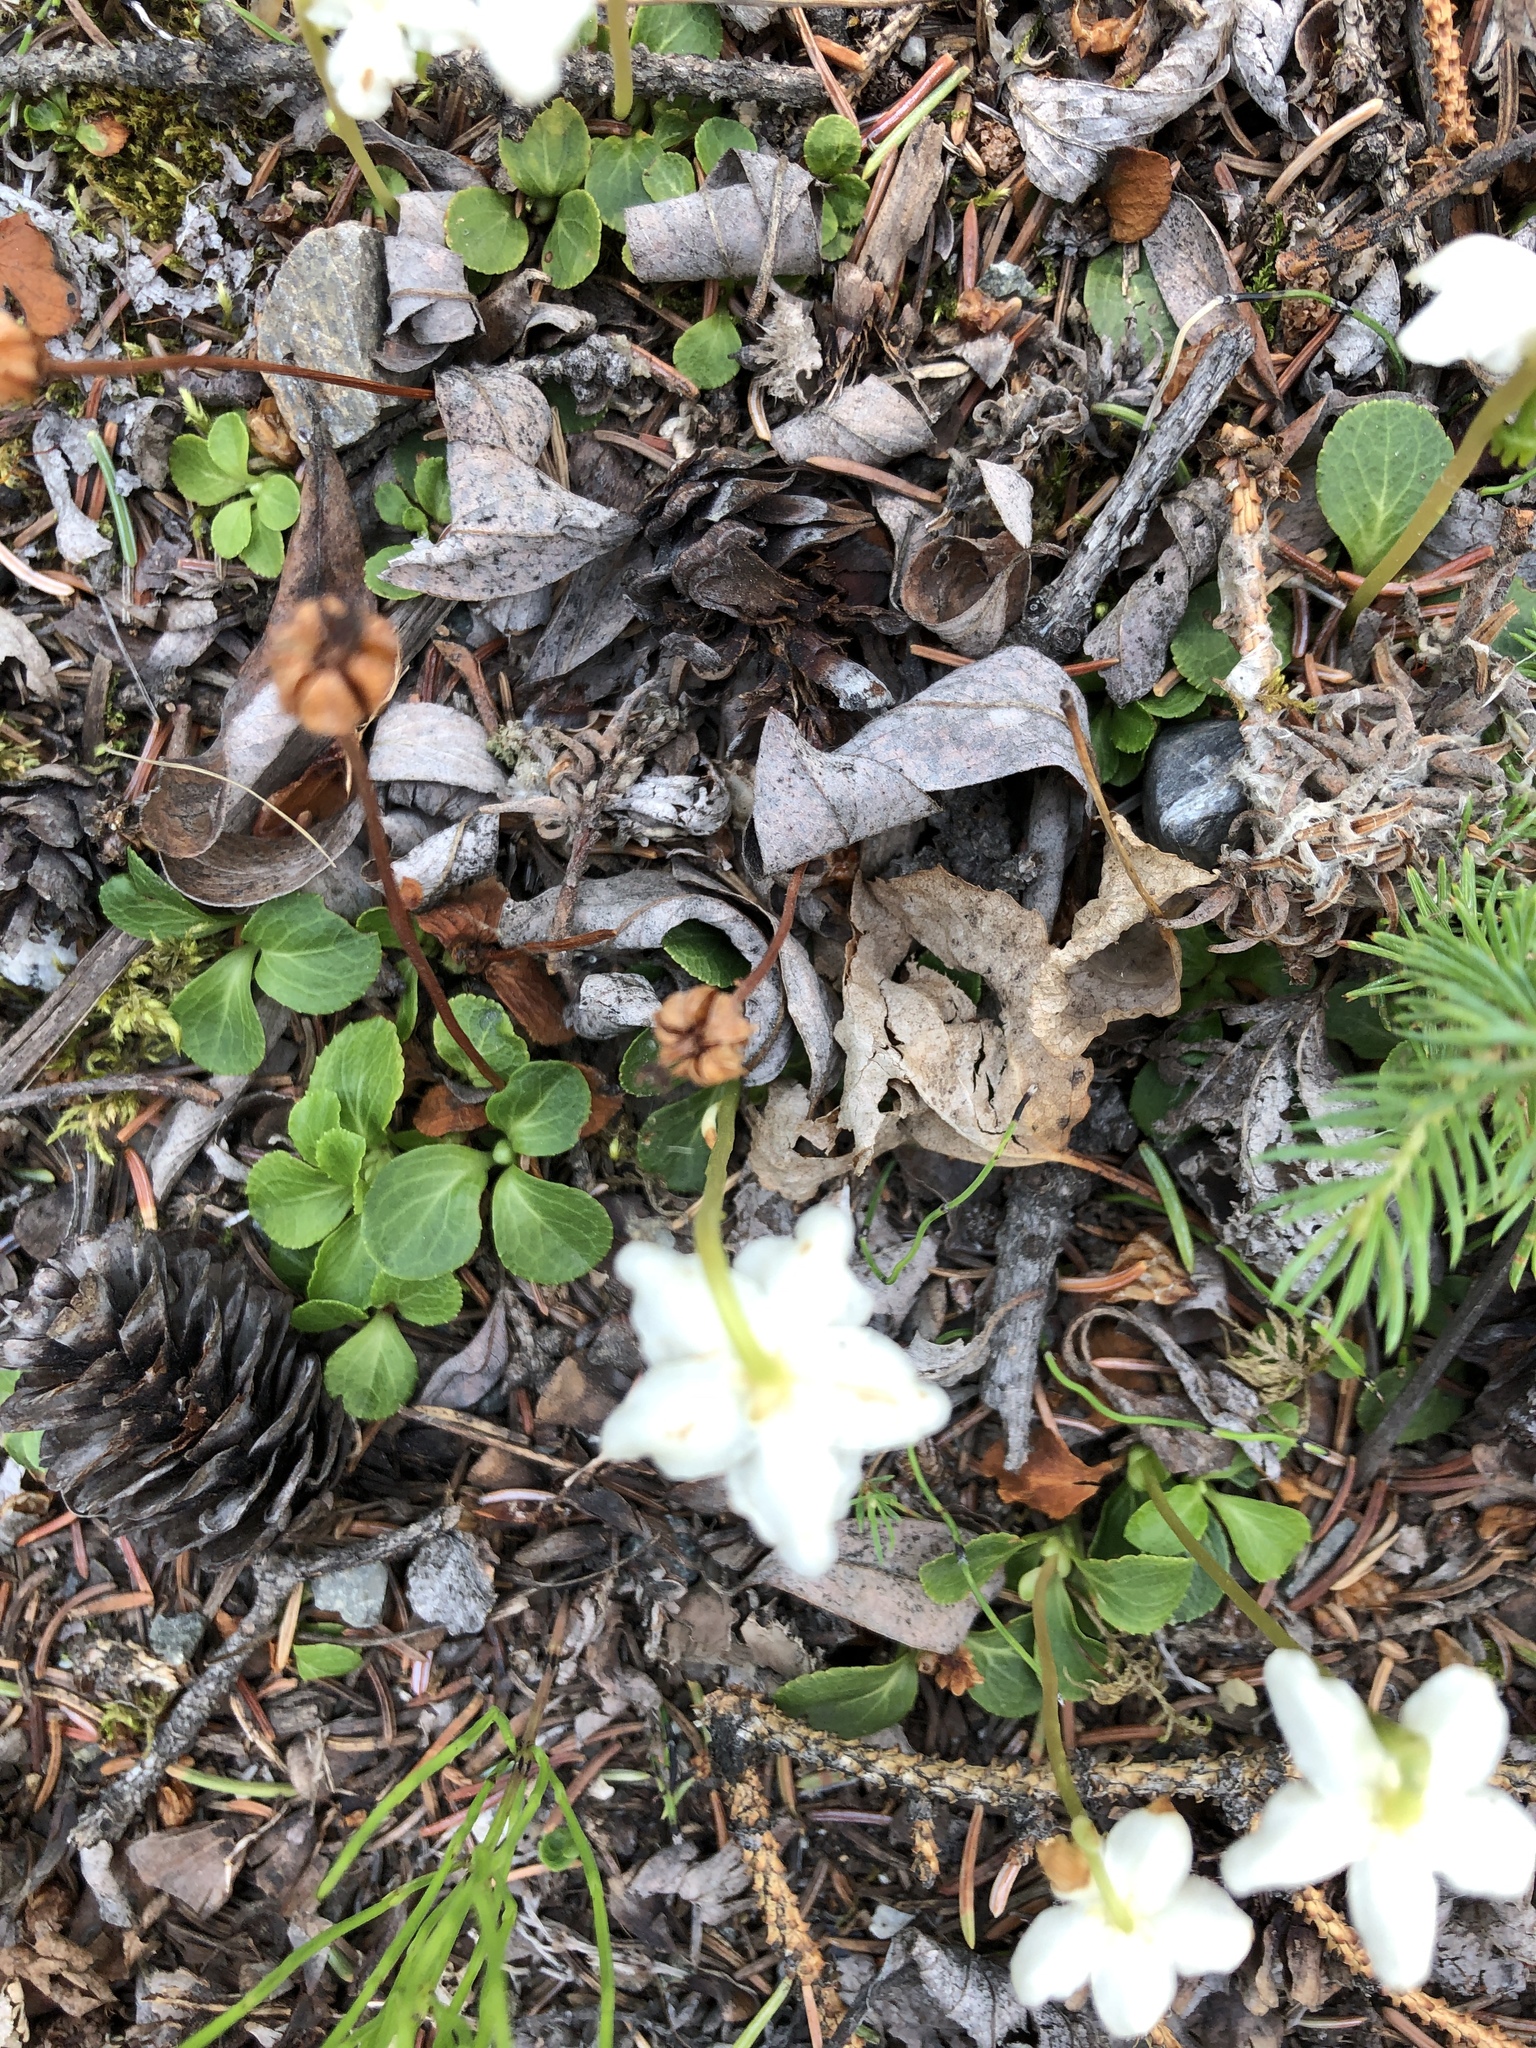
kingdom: Plantae
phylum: Tracheophyta
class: Magnoliopsida
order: Ericales
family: Ericaceae
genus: Moneses
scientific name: Moneses uniflora
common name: One-flowered wintergreen
